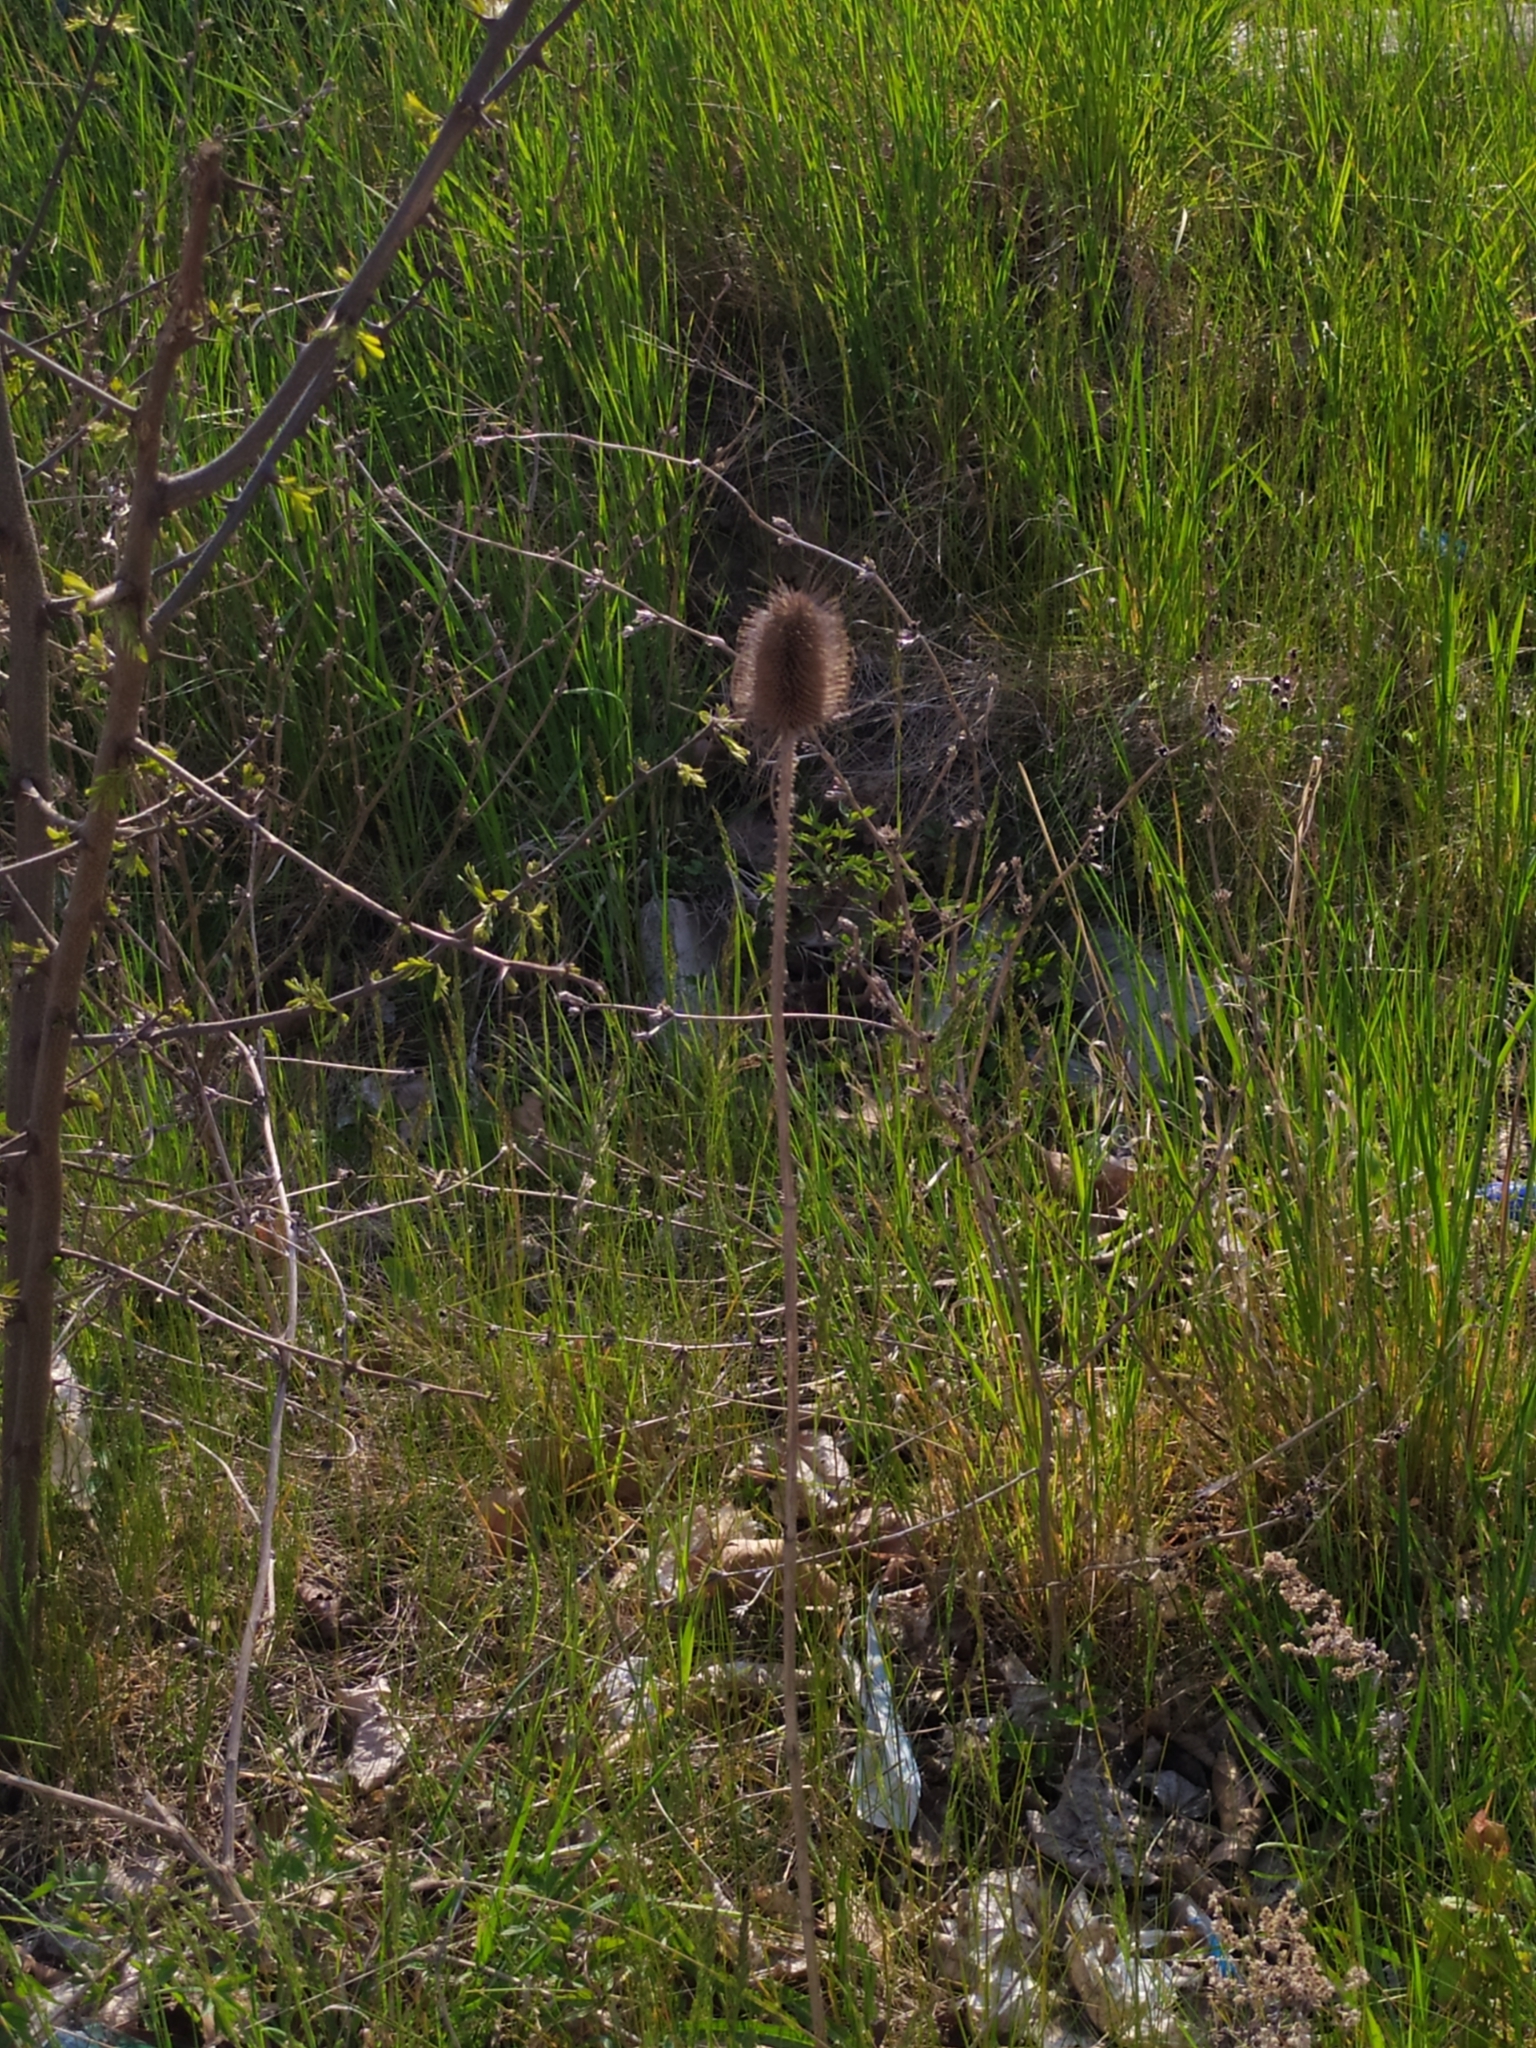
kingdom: Plantae
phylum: Tracheophyta
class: Magnoliopsida
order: Dipsacales
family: Caprifoliaceae
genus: Dipsacus
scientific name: Dipsacus fullonum
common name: Teasel
